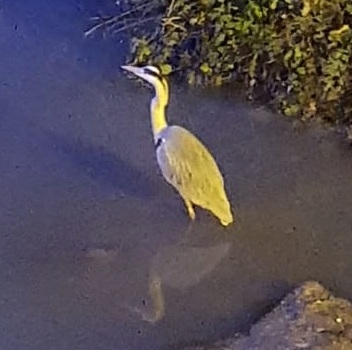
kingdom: Animalia
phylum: Chordata
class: Aves
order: Pelecaniformes
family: Ardeidae
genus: Ardea
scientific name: Ardea cinerea
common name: Grey heron
